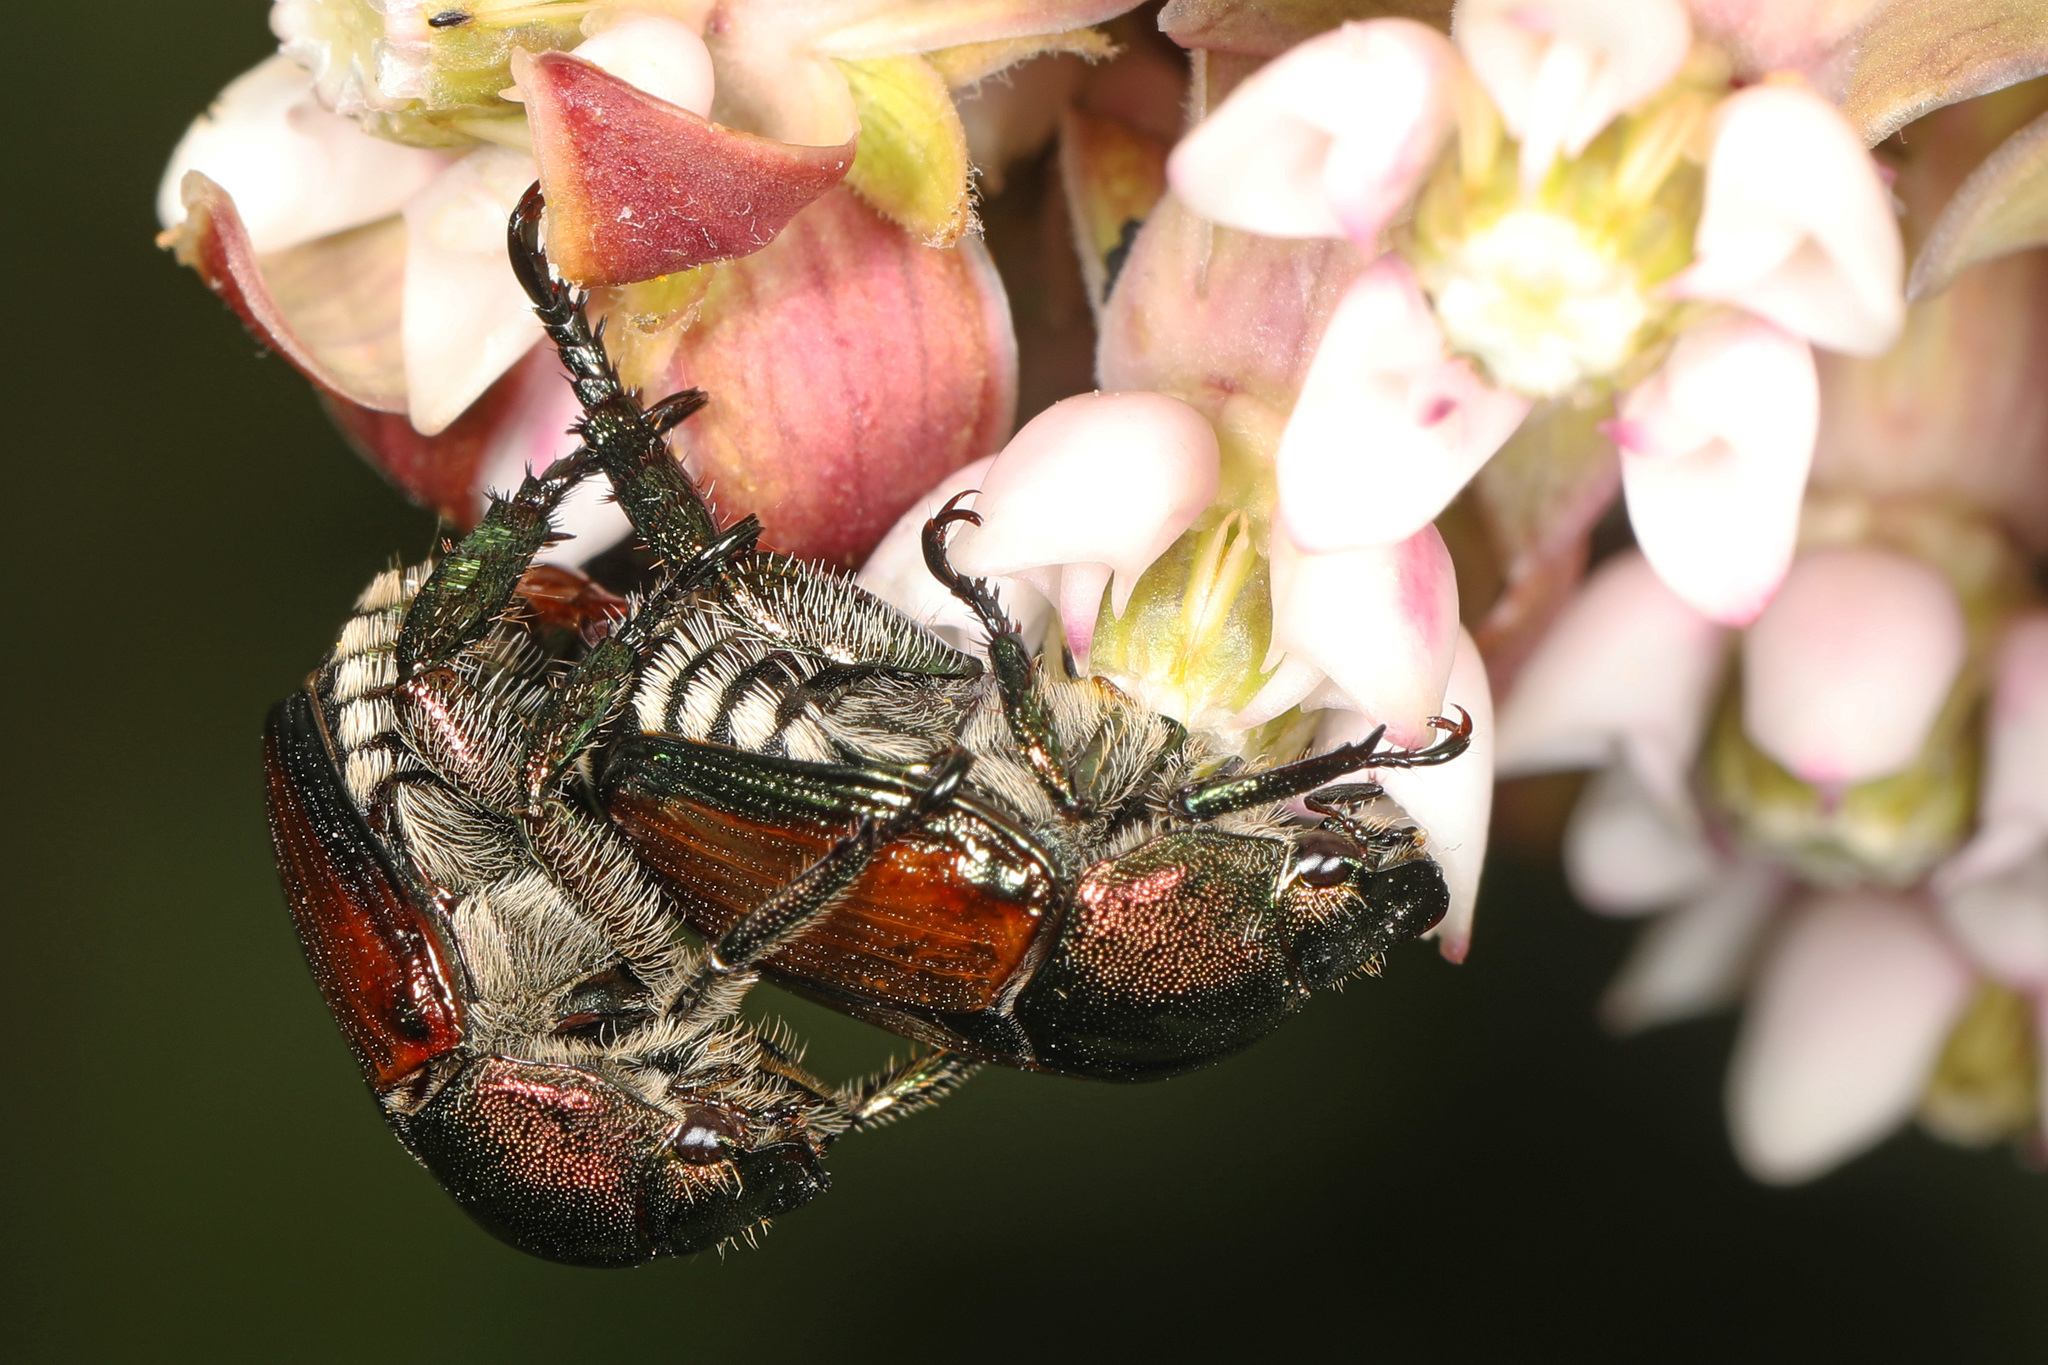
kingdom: Animalia
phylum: Arthropoda
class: Insecta
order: Coleoptera
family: Scarabaeidae
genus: Popillia
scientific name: Popillia japonica
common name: Japanese beetle
